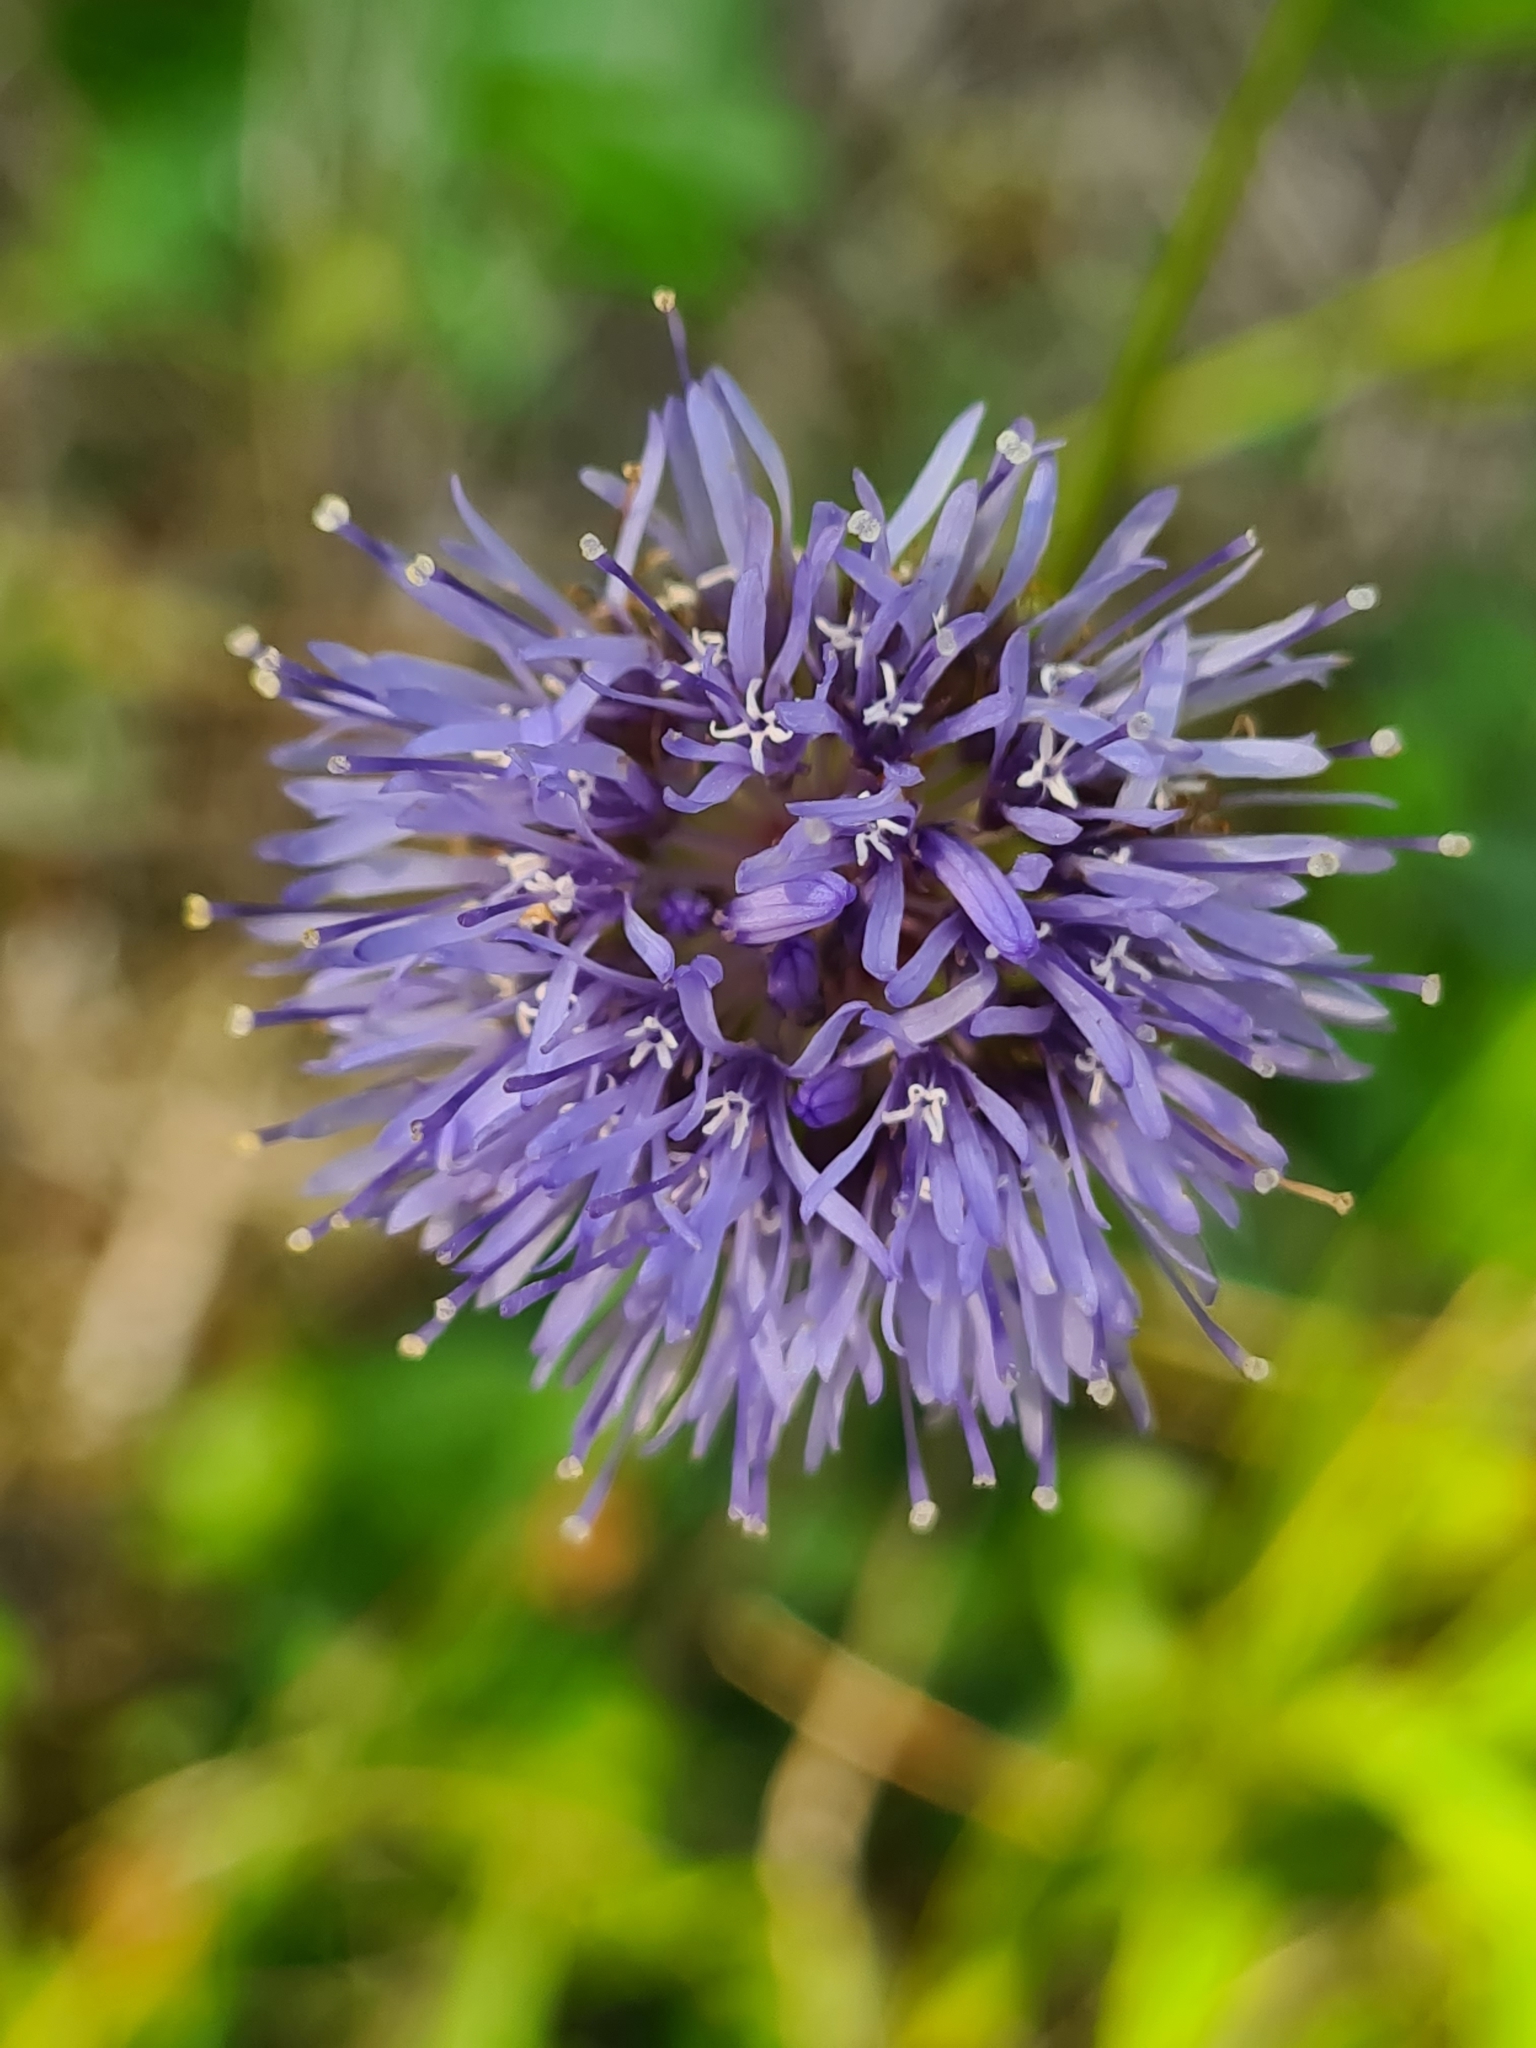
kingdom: Plantae
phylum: Tracheophyta
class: Magnoliopsida
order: Asterales
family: Campanulaceae
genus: Jasione
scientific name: Jasione montana
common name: Sheep's-bit
